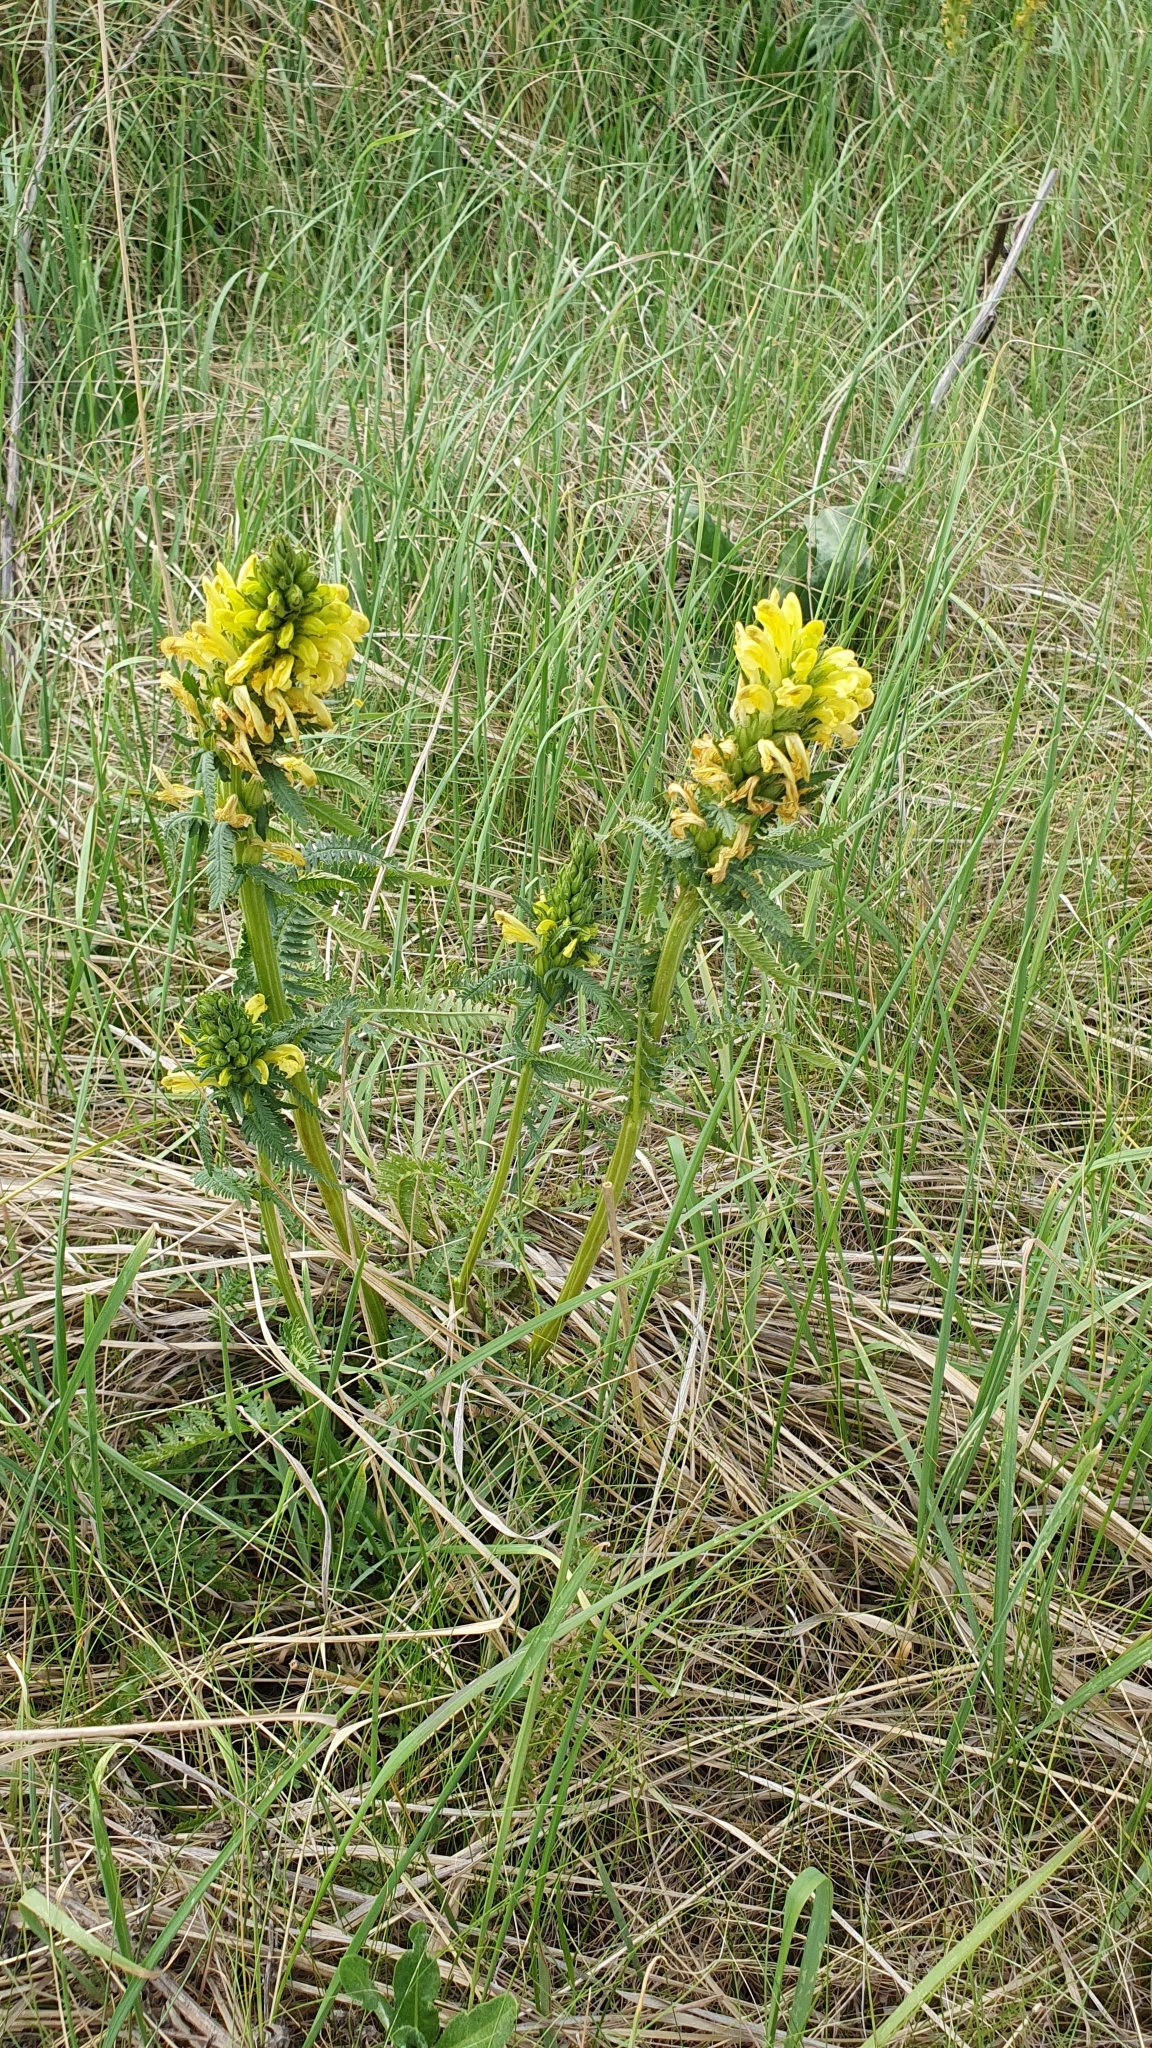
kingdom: Plantae
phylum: Tracheophyta
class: Magnoliopsida
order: Lamiales
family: Orobanchaceae
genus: Pedicularis
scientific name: Pedicularis kaufmannii
